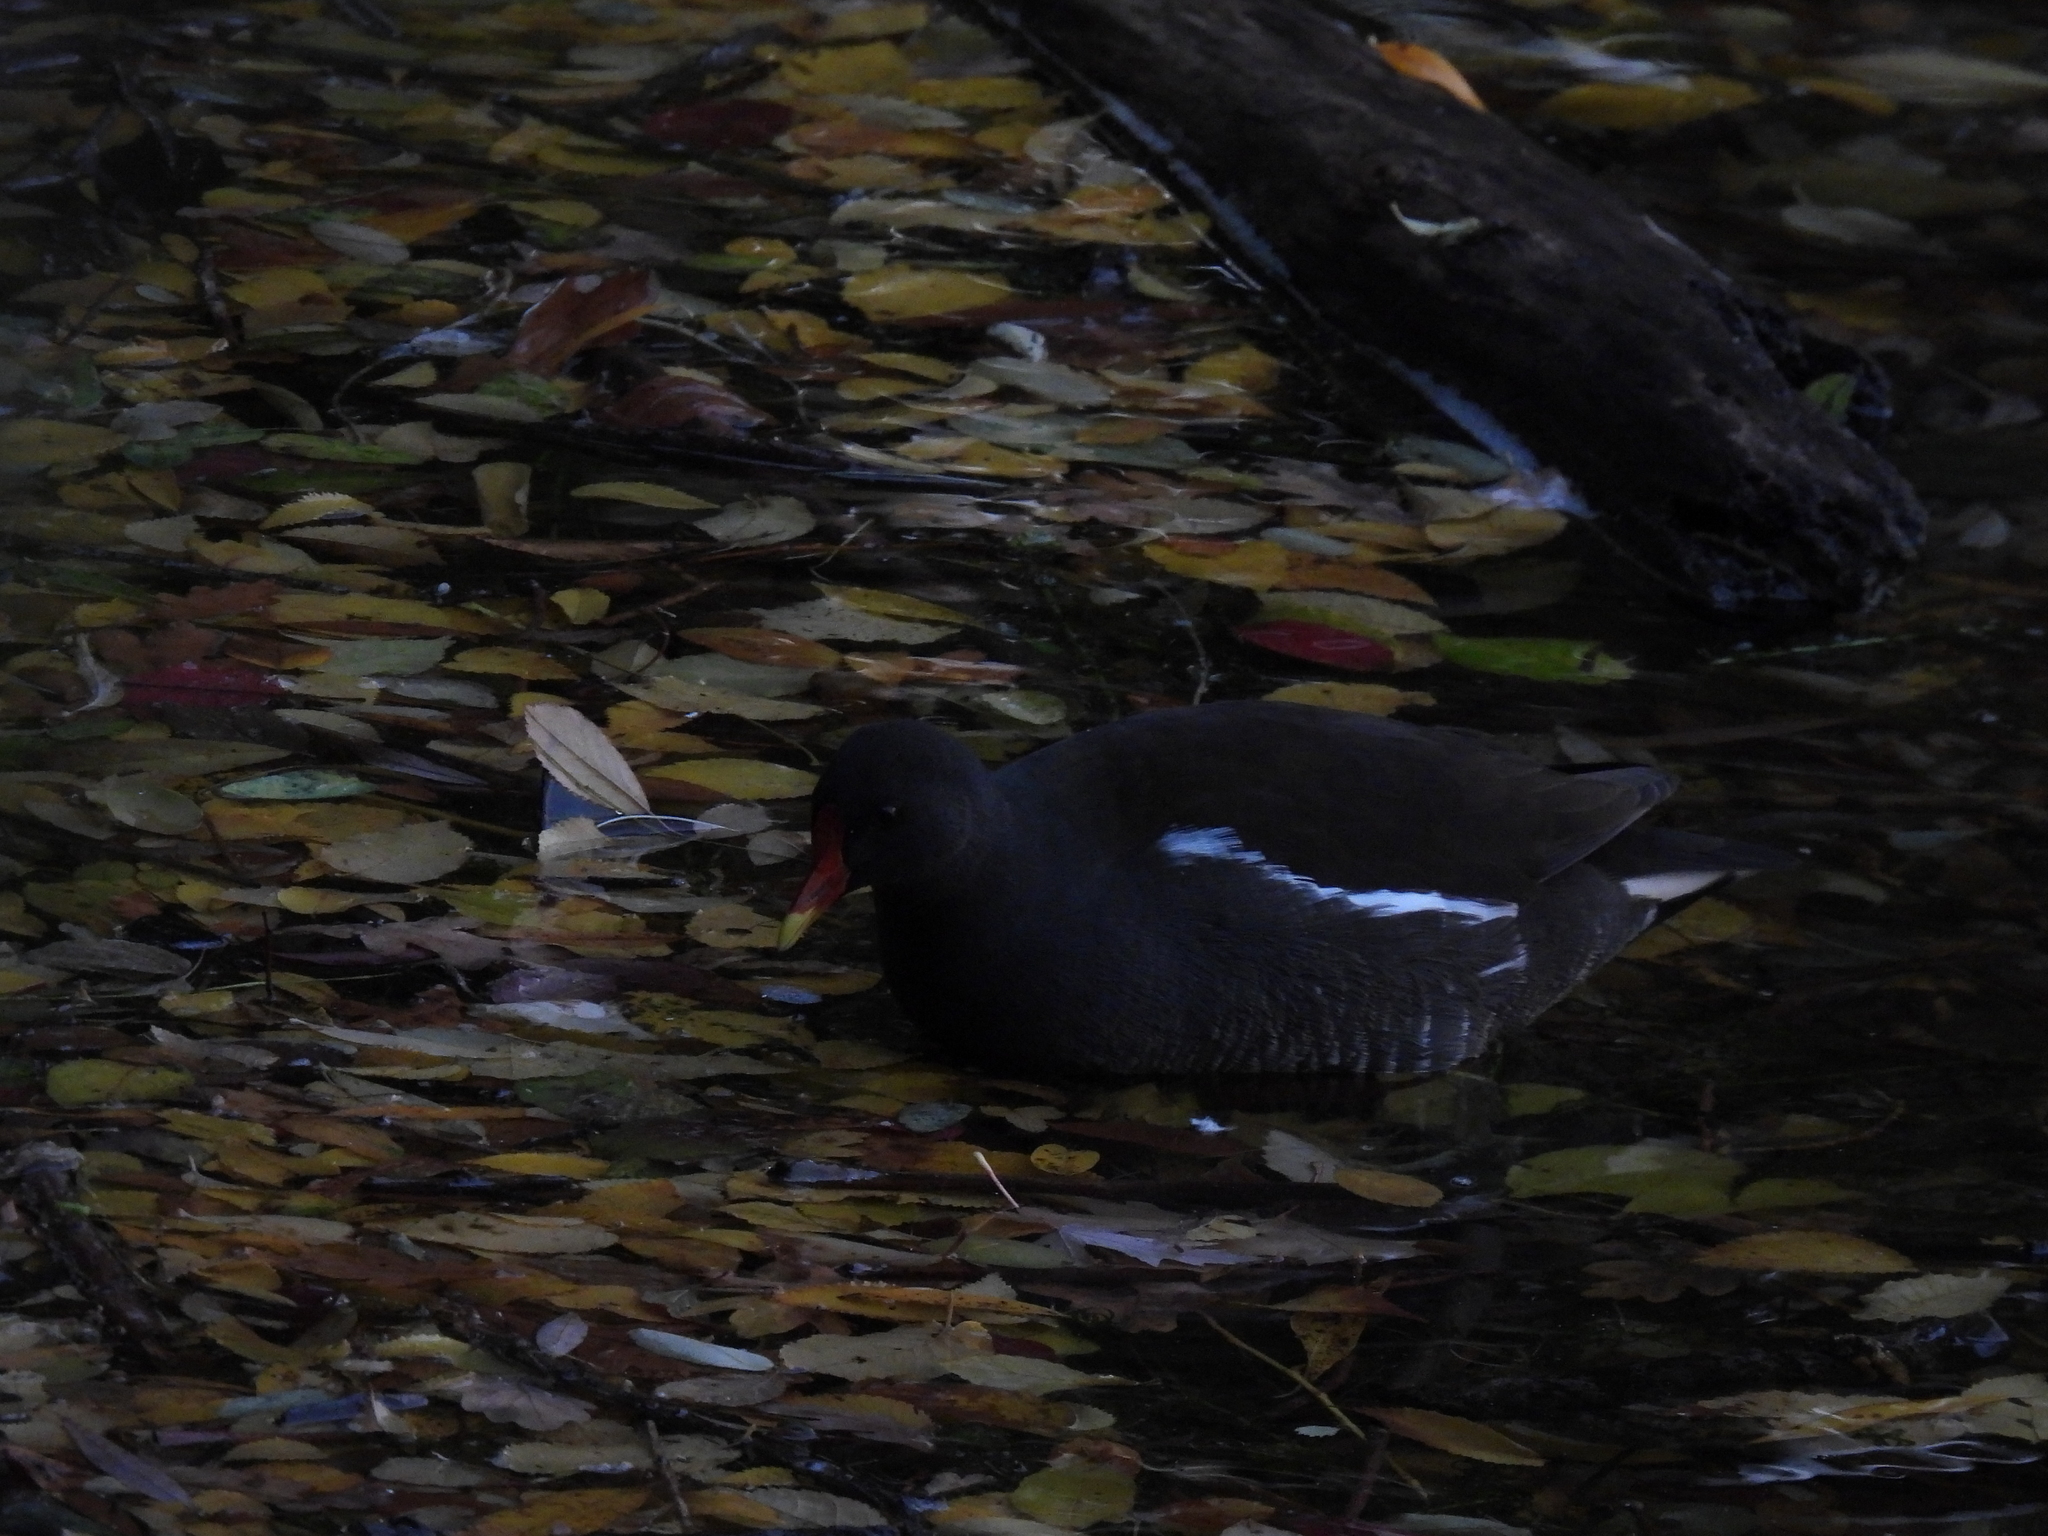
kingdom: Animalia
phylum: Chordata
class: Aves
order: Gruiformes
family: Rallidae
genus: Gallinula
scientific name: Gallinula chloropus
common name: Common moorhen
